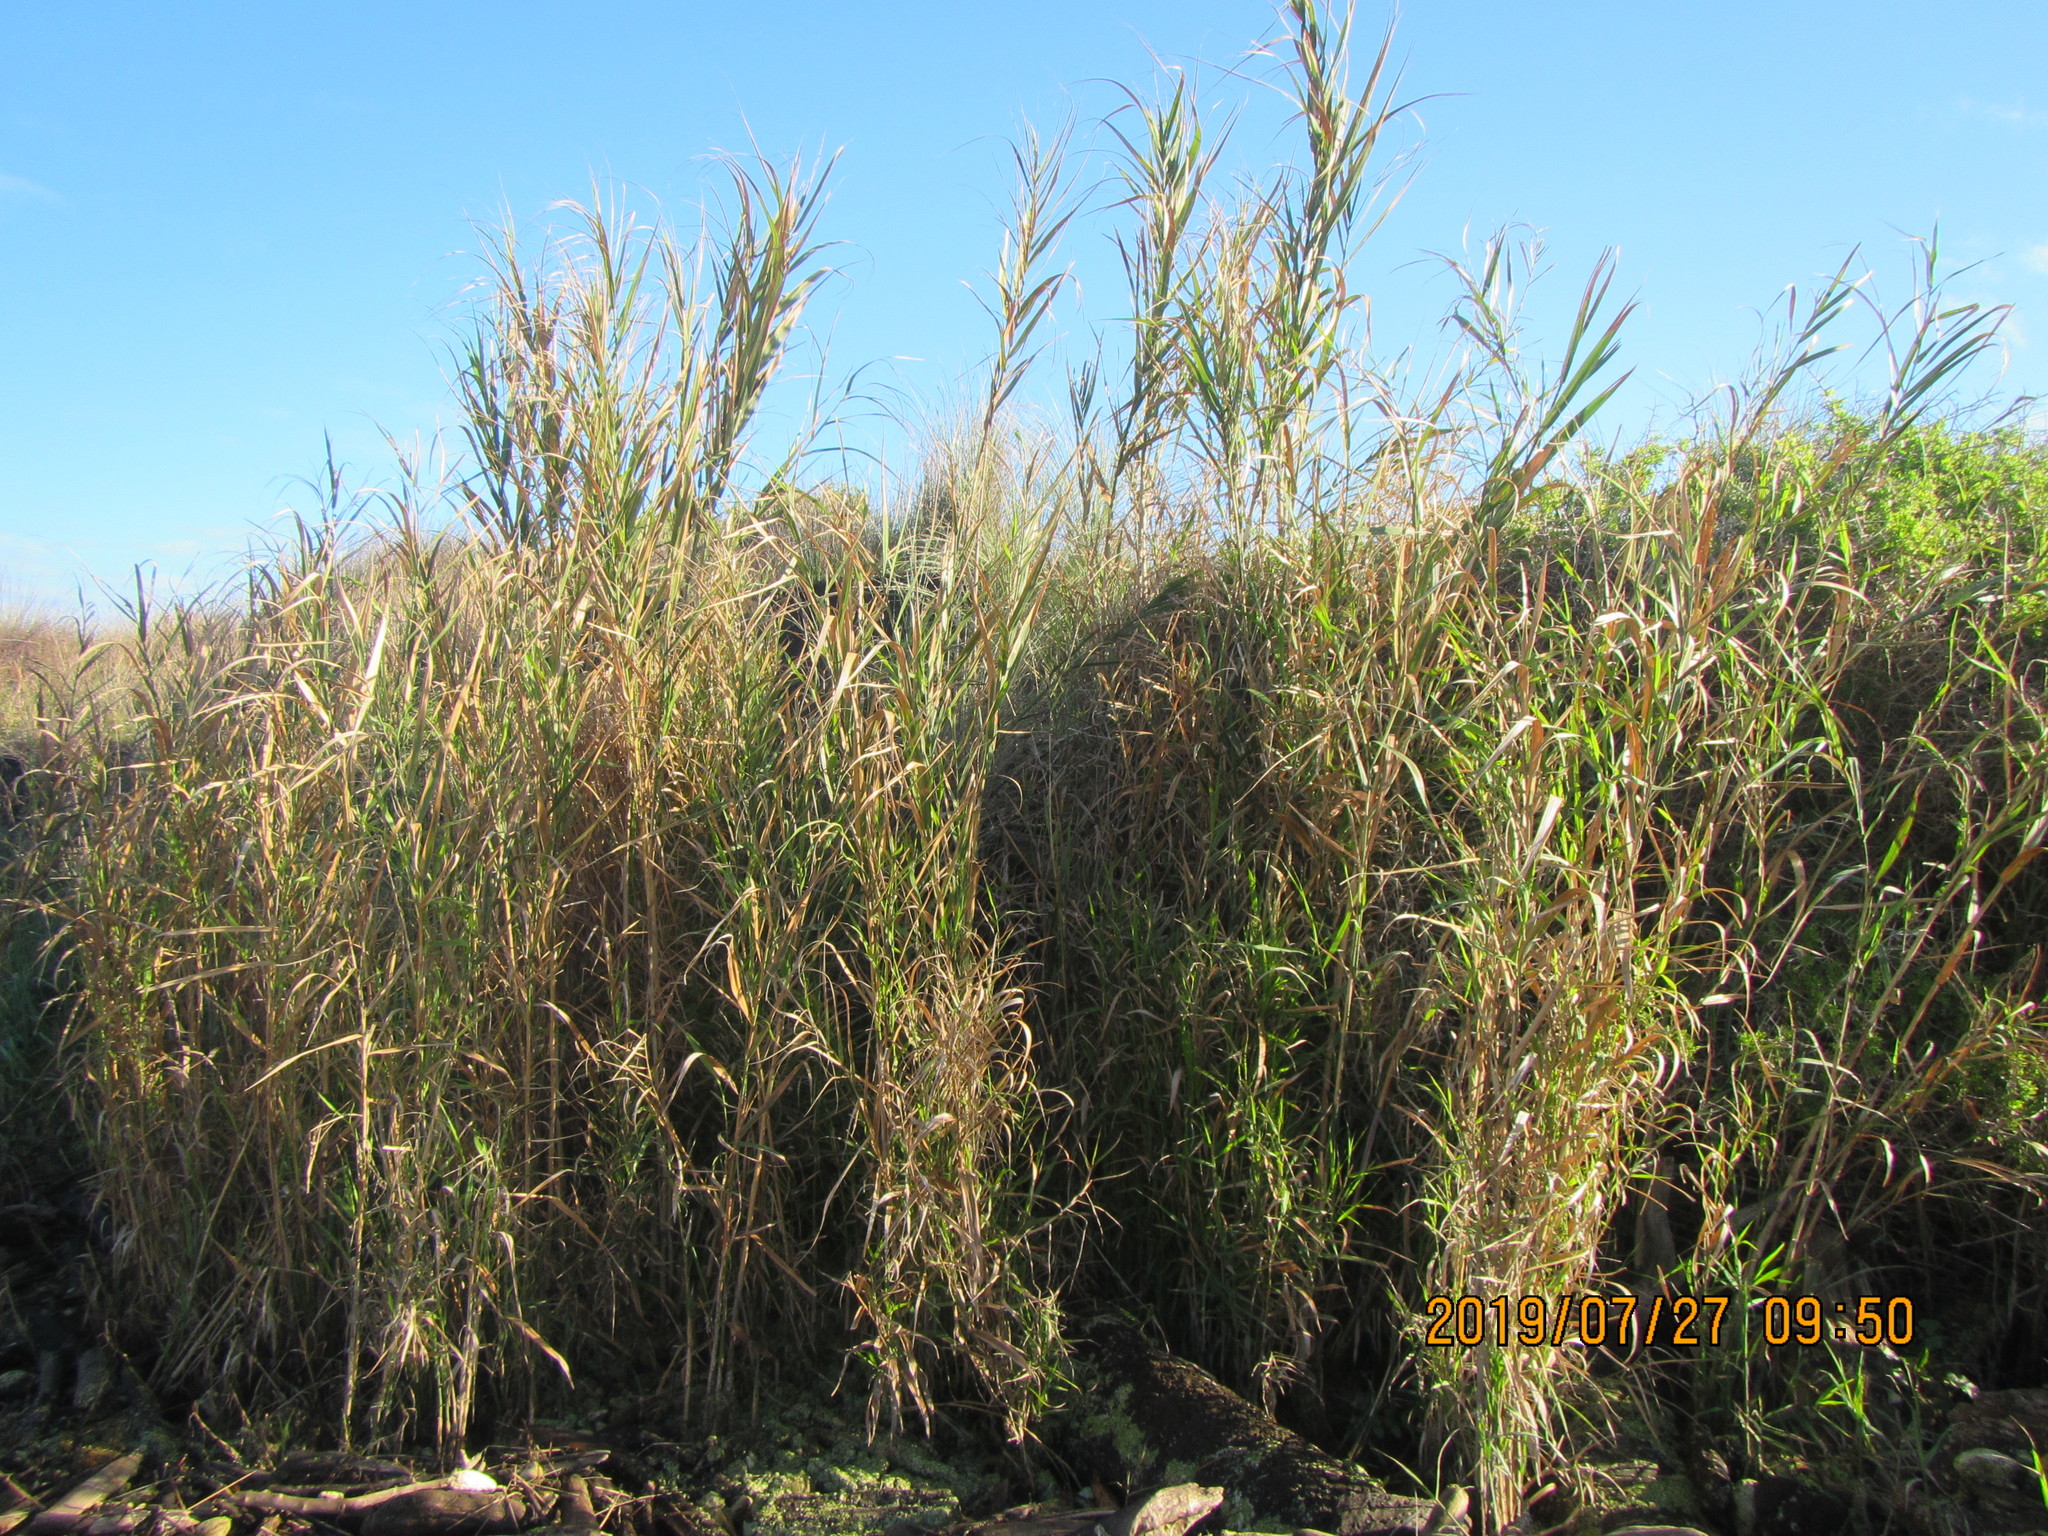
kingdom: Plantae
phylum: Tracheophyta
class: Liliopsida
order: Poales
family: Poaceae
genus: Arundo
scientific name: Arundo donax
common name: Giant reed
